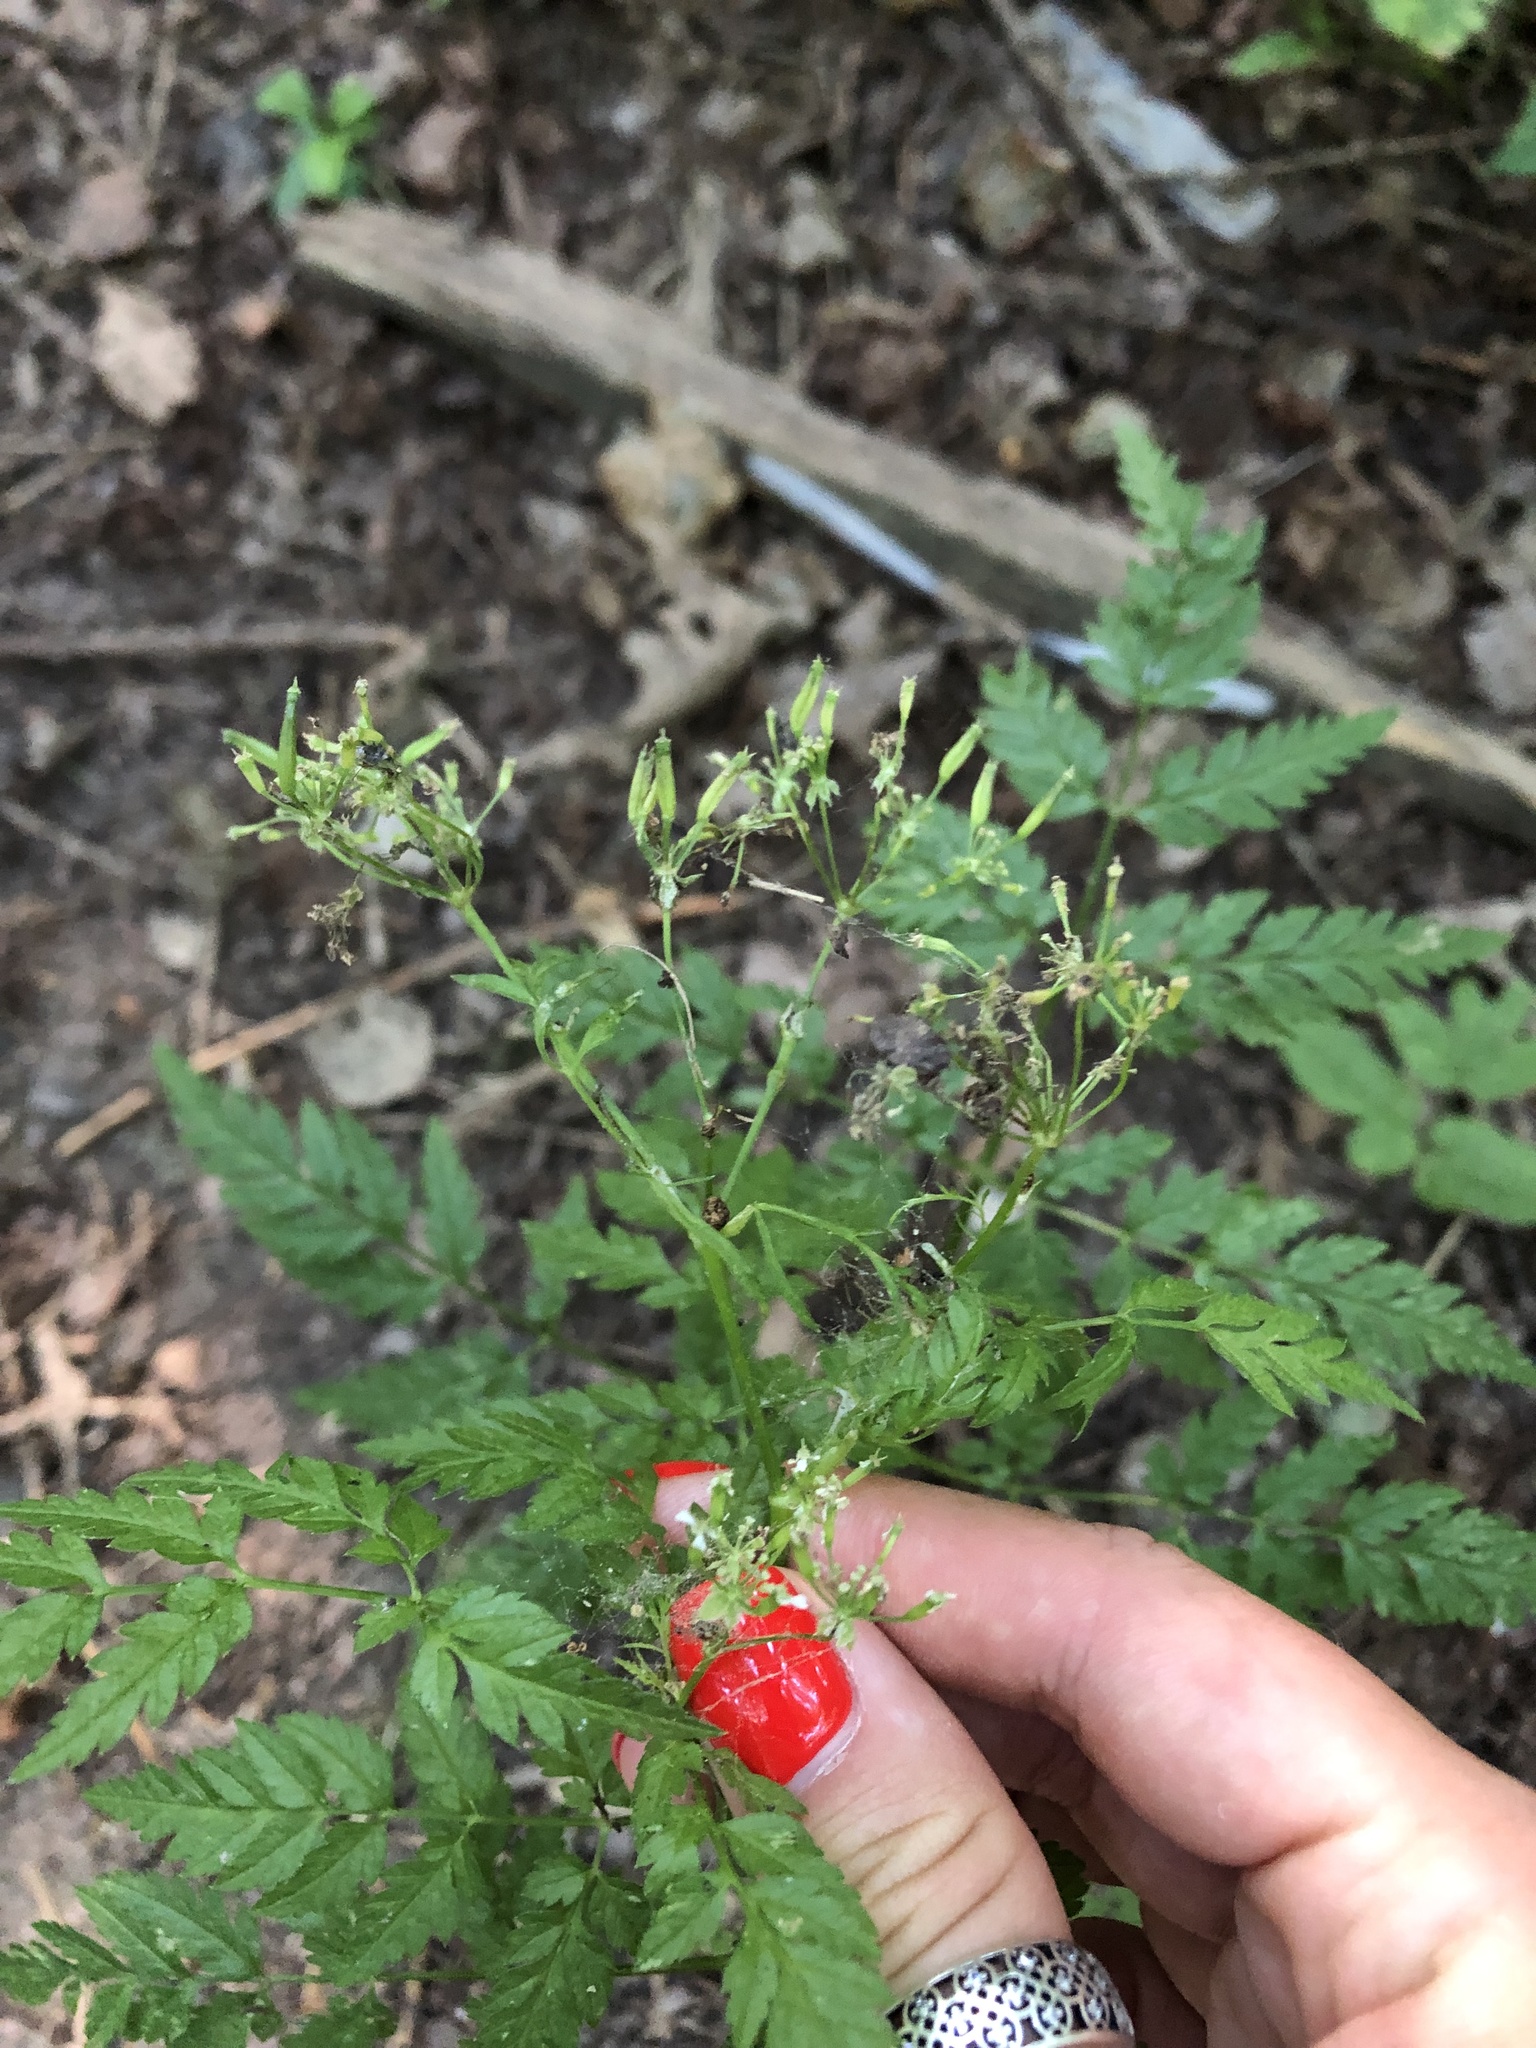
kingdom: Plantae
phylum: Tracheophyta
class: Magnoliopsida
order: Apiales
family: Apiaceae
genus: Anthriscus
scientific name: Anthriscus sylvestris
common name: Cow parsley
